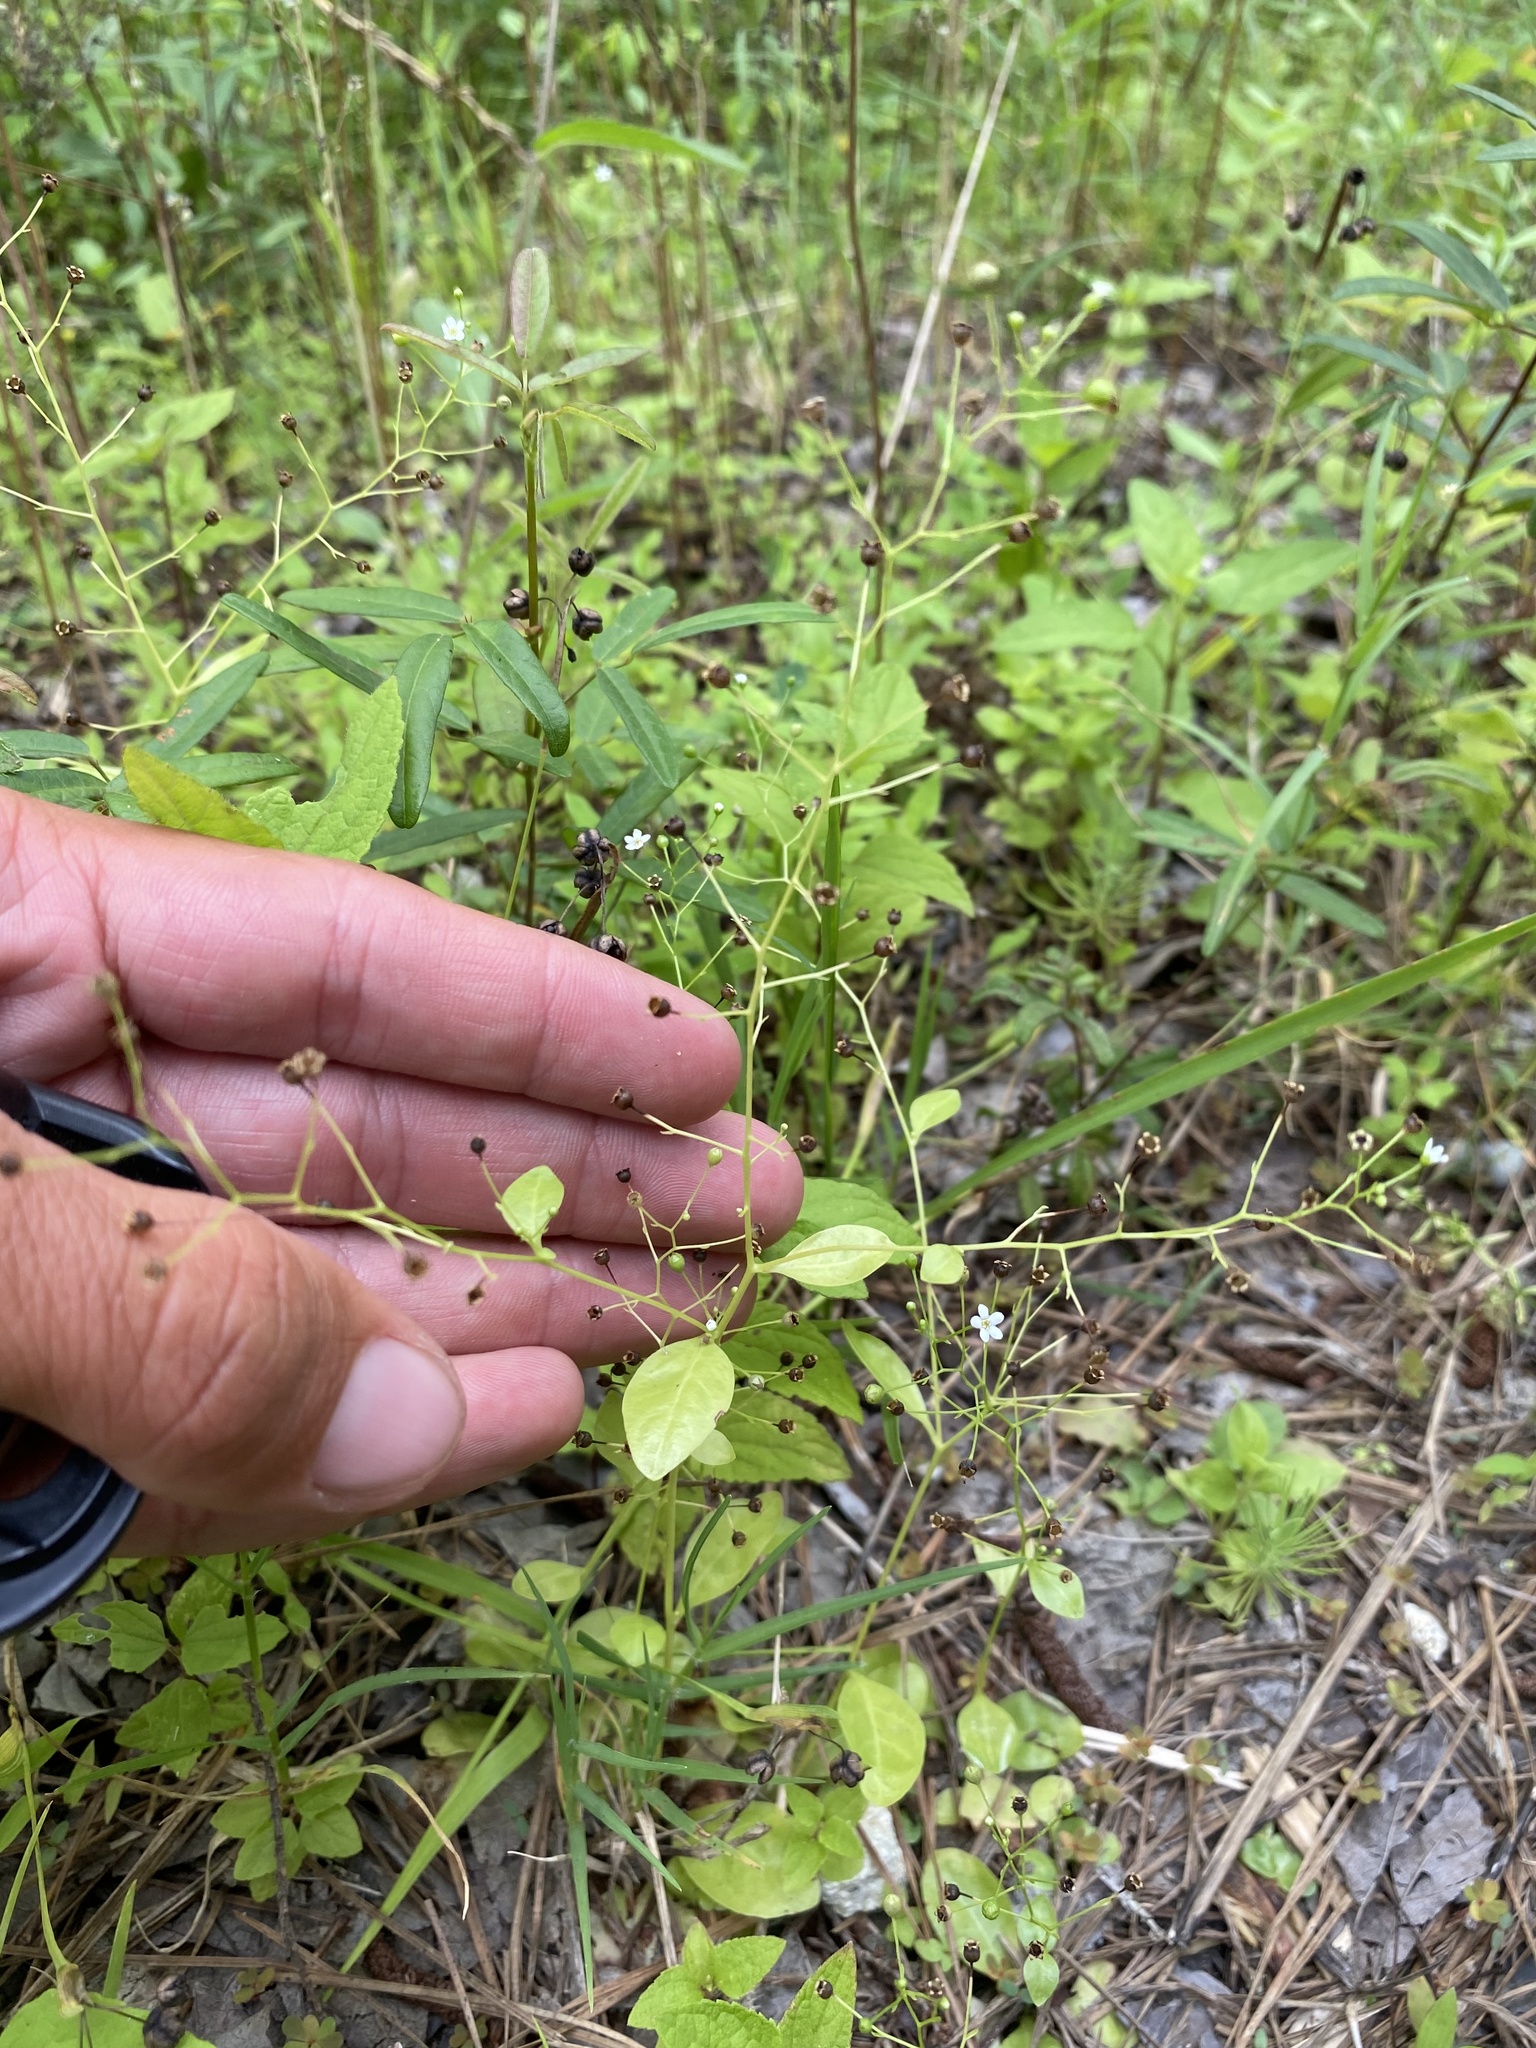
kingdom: Plantae
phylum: Tracheophyta
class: Magnoliopsida
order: Ericales
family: Primulaceae
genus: Samolus
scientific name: Samolus parviflorus
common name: False water pimpernel
